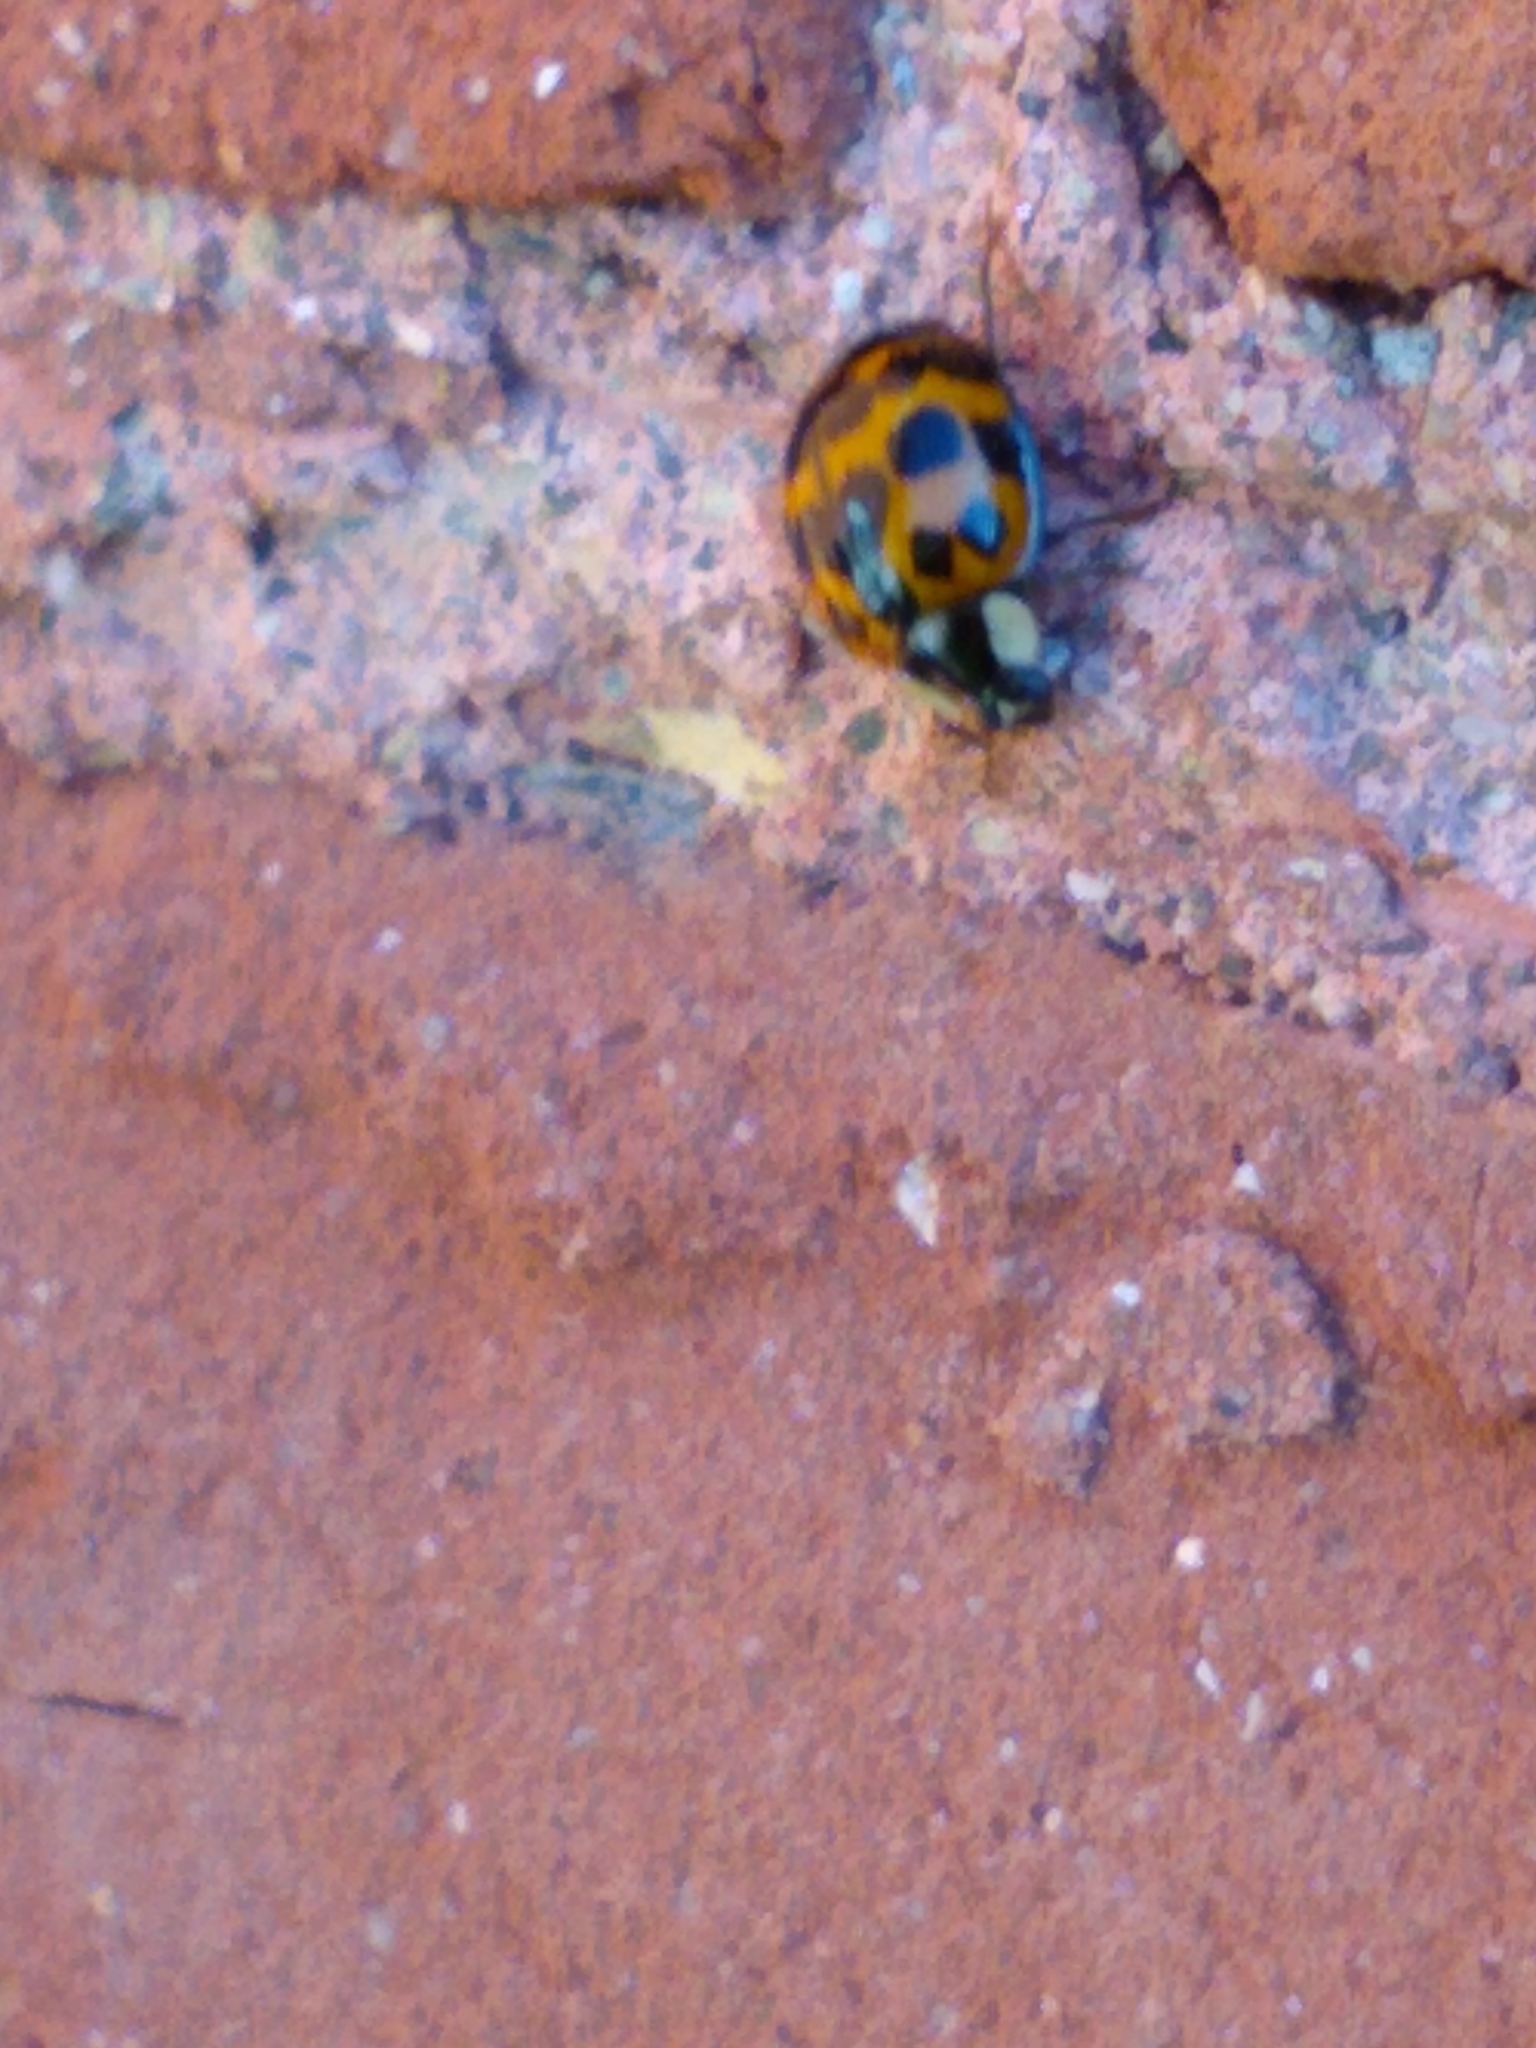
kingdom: Animalia
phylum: Arthropoda
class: Insecta
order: Coleoptera
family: Coccinellidae
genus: Harmonia
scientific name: Harmonia axyridis
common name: Harlequin ladybird
